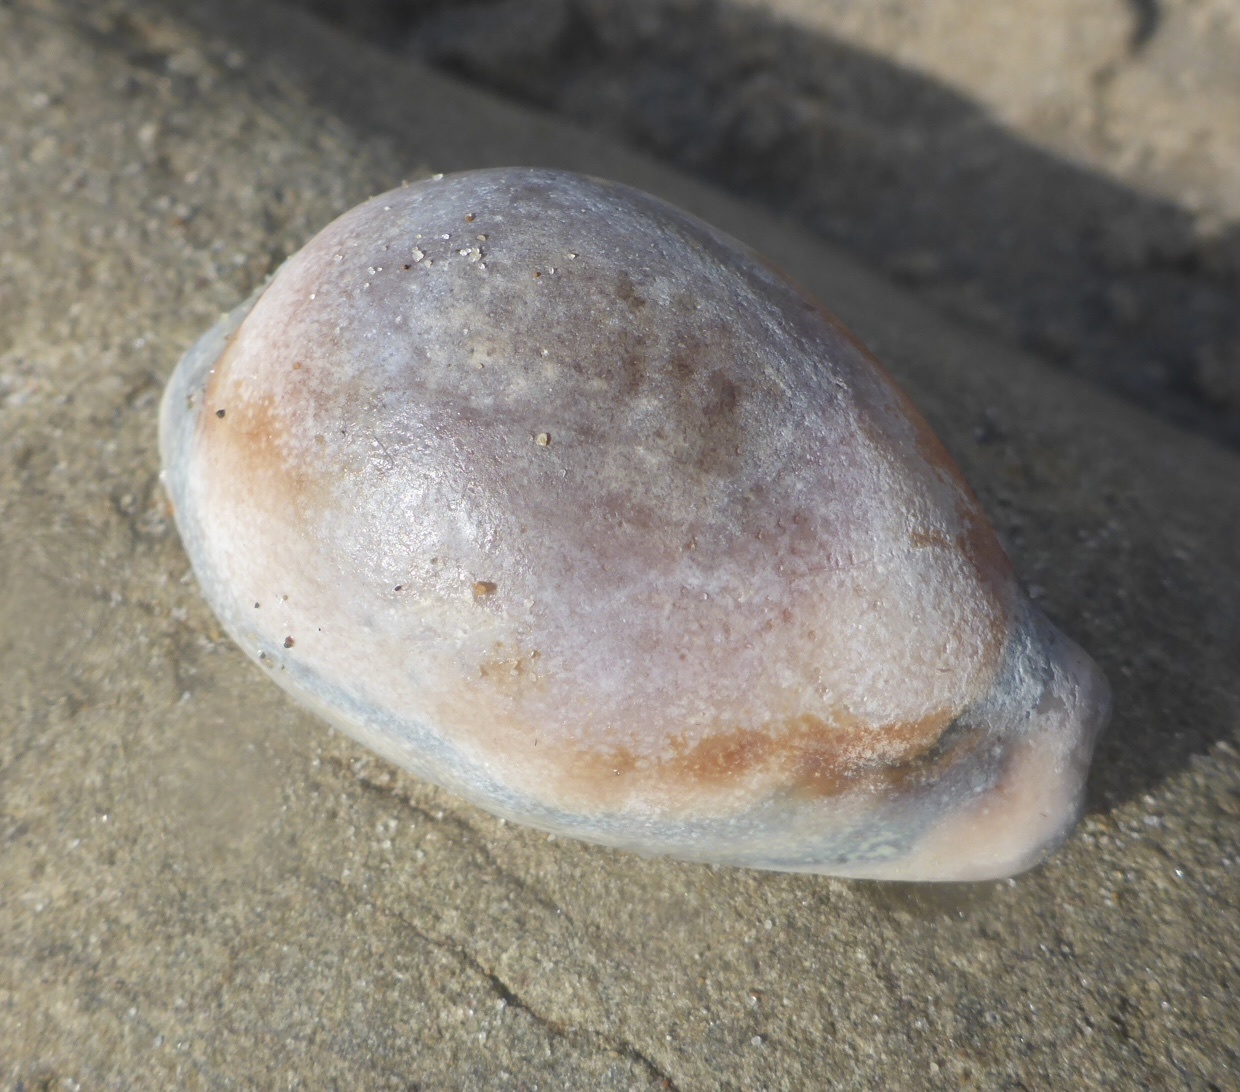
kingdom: Animalia
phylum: Mollusca
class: Gastropoda
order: Littorinimorpha
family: Cypraeidae
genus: Neobernaya
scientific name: Neobernaya spadicea
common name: Chestnut cowrie
